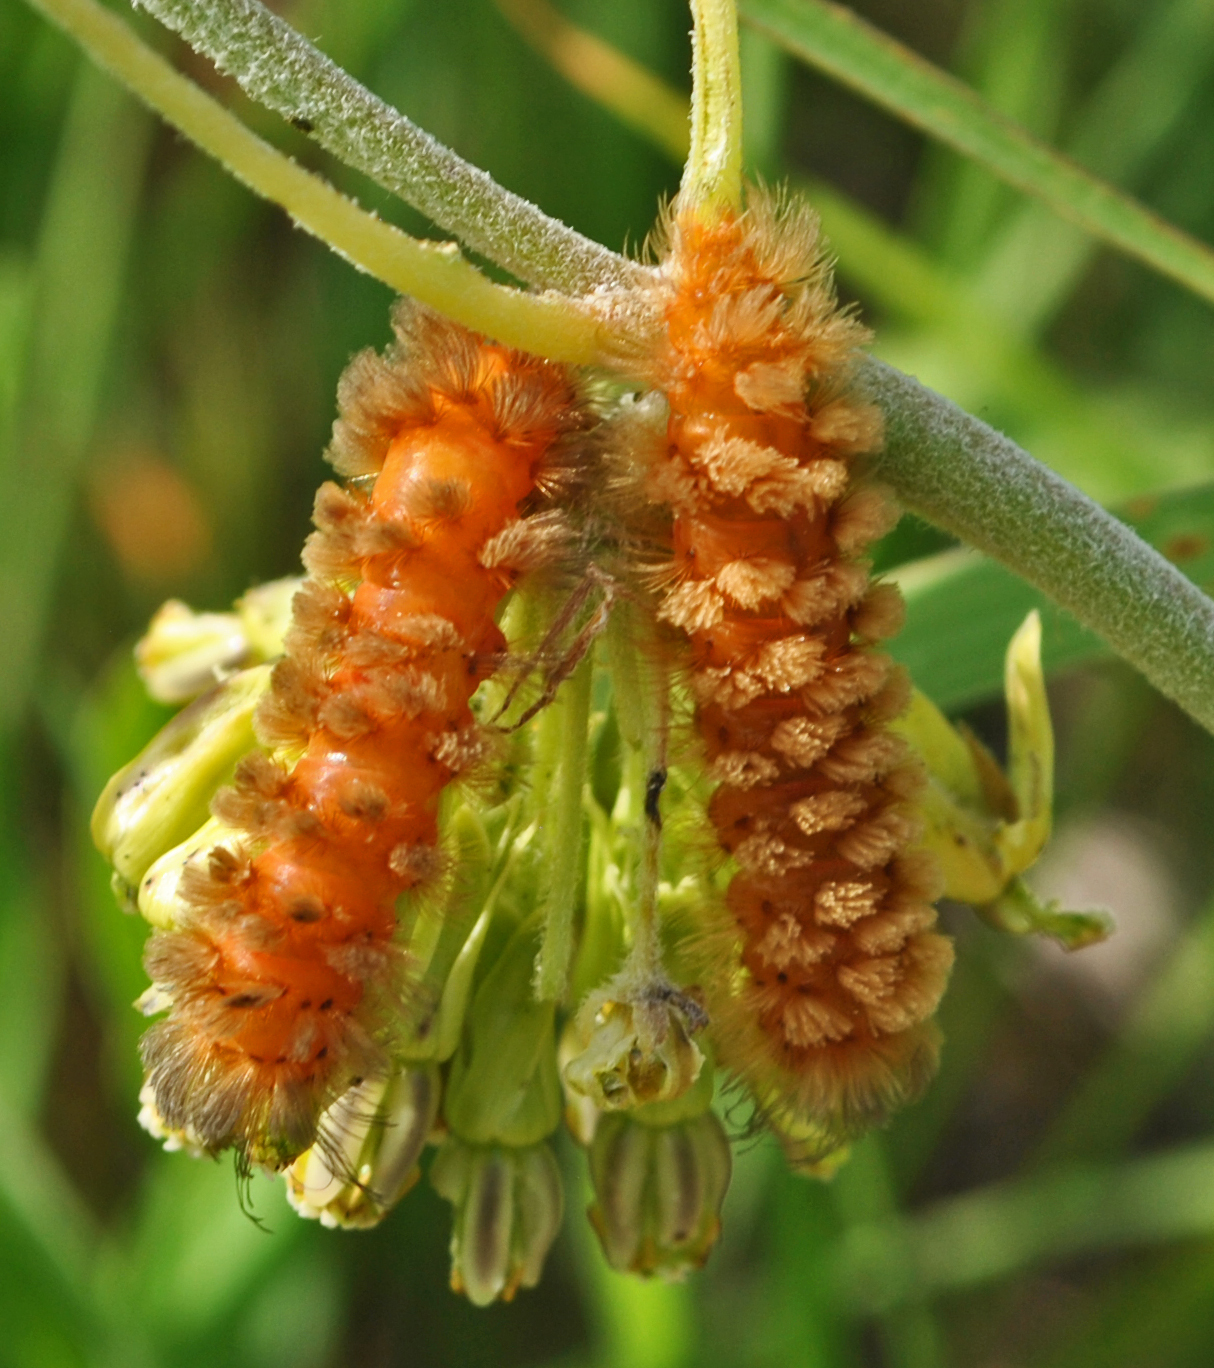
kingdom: Animalia
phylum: Arthropoda
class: Insecta
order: Lepidoptera
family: Erebidae
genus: Cycnia
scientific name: Cycnia collaris
